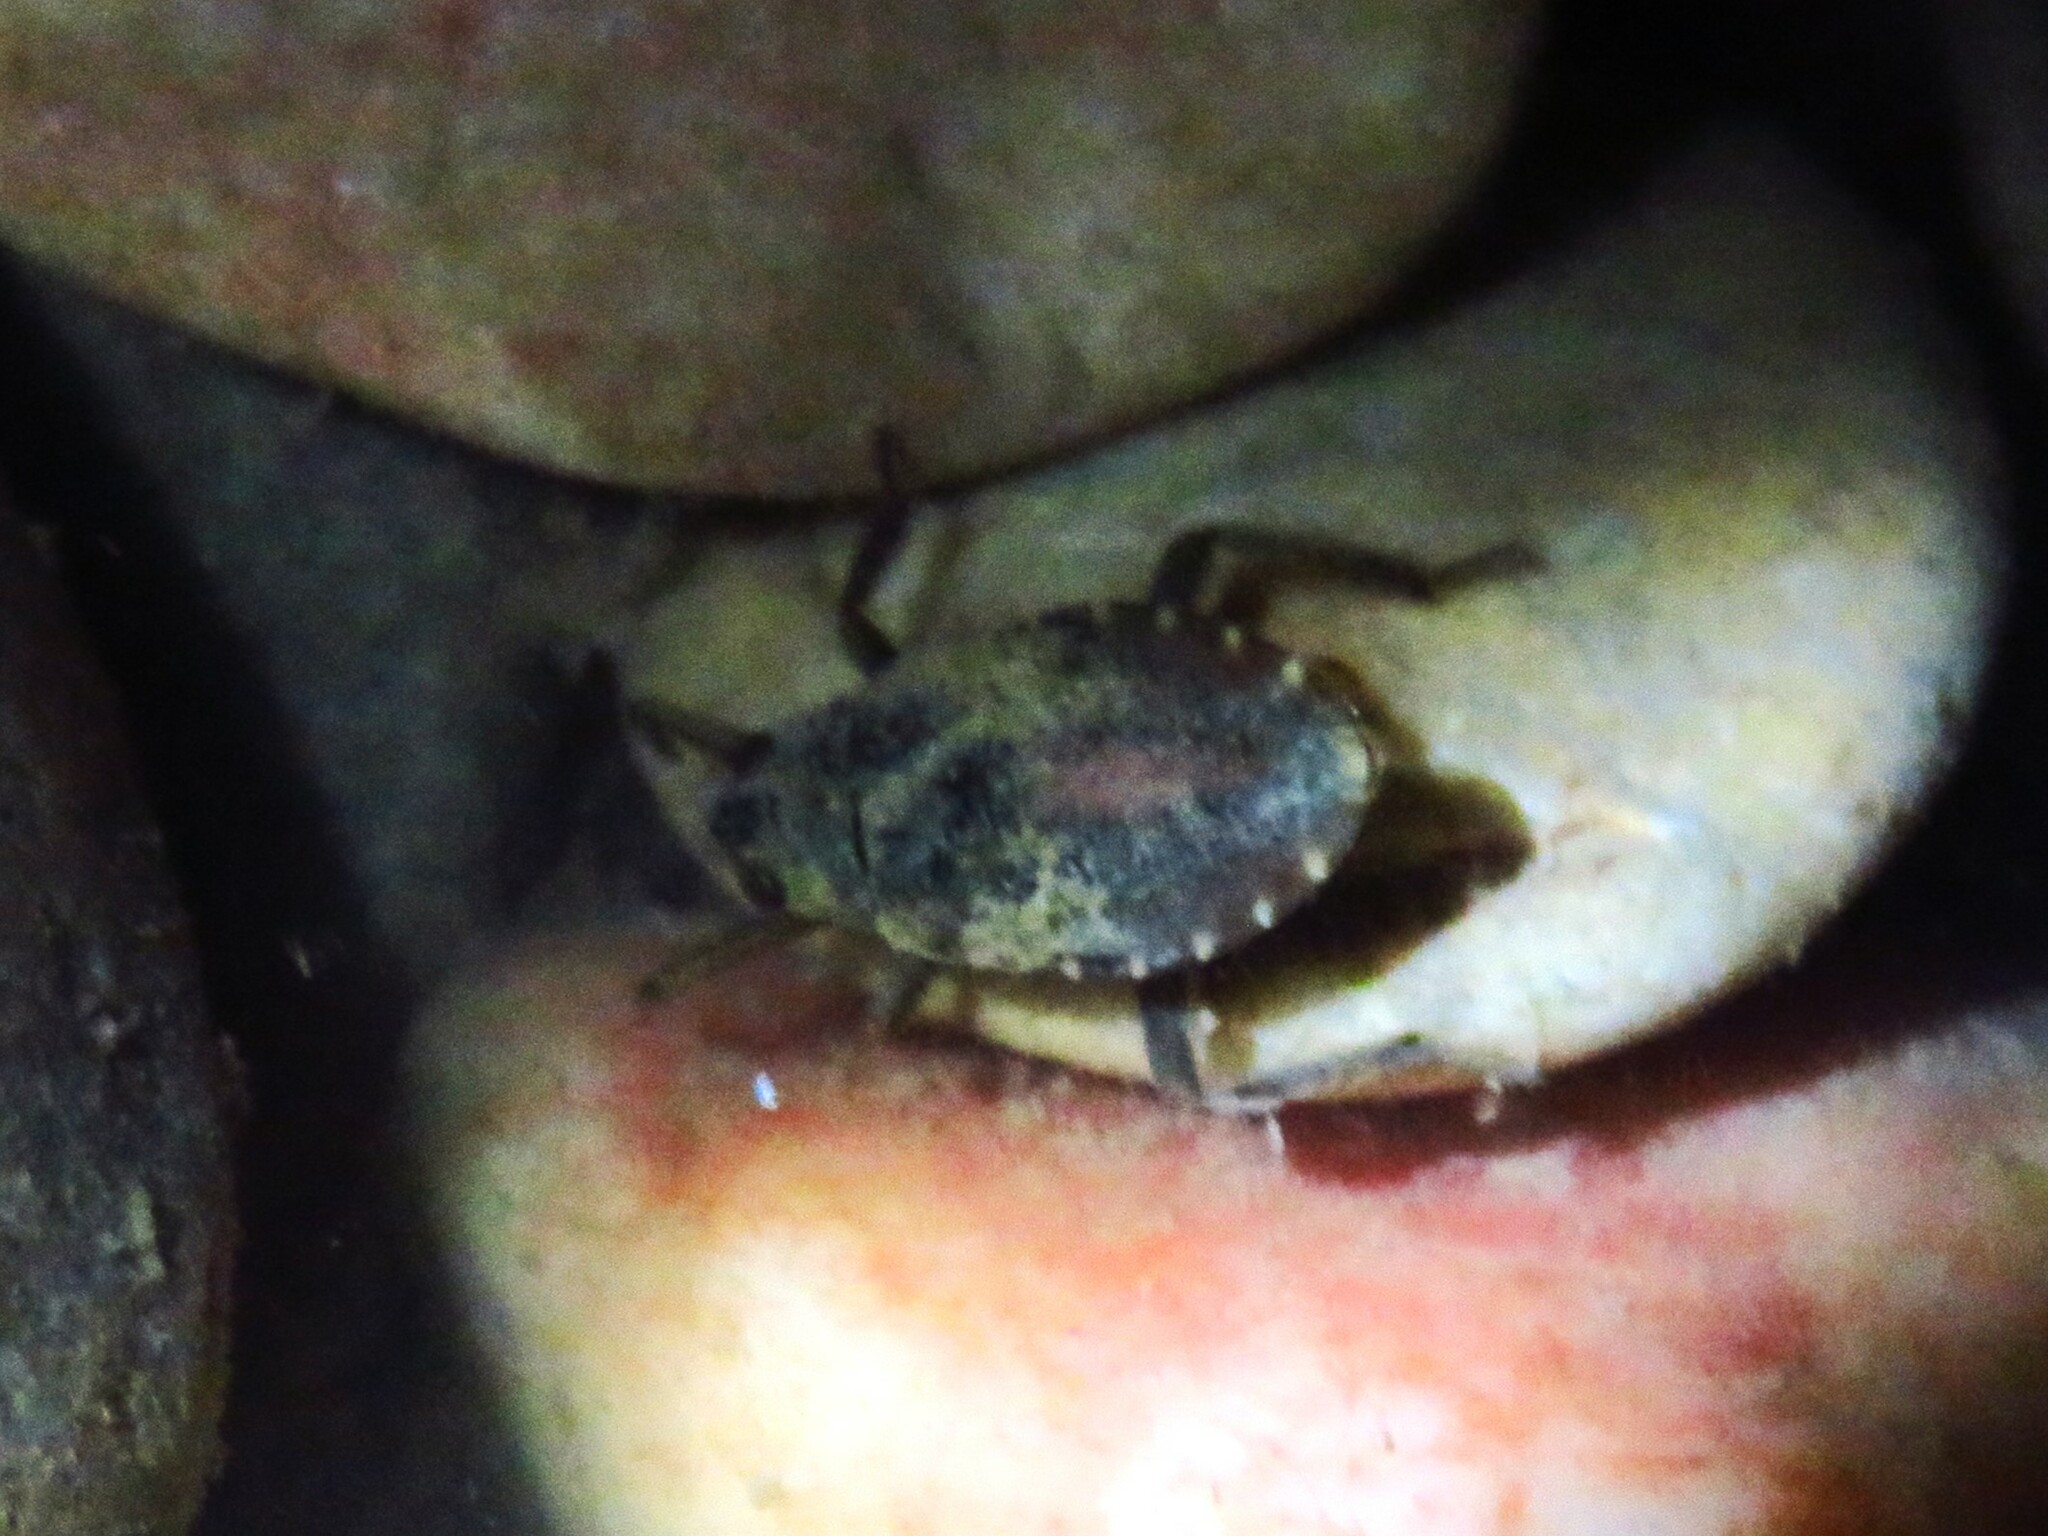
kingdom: Animalia
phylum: Arthropoda
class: Insecta
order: Hemiptera
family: Belostomatidae
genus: Belostoma
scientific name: Belostoma
